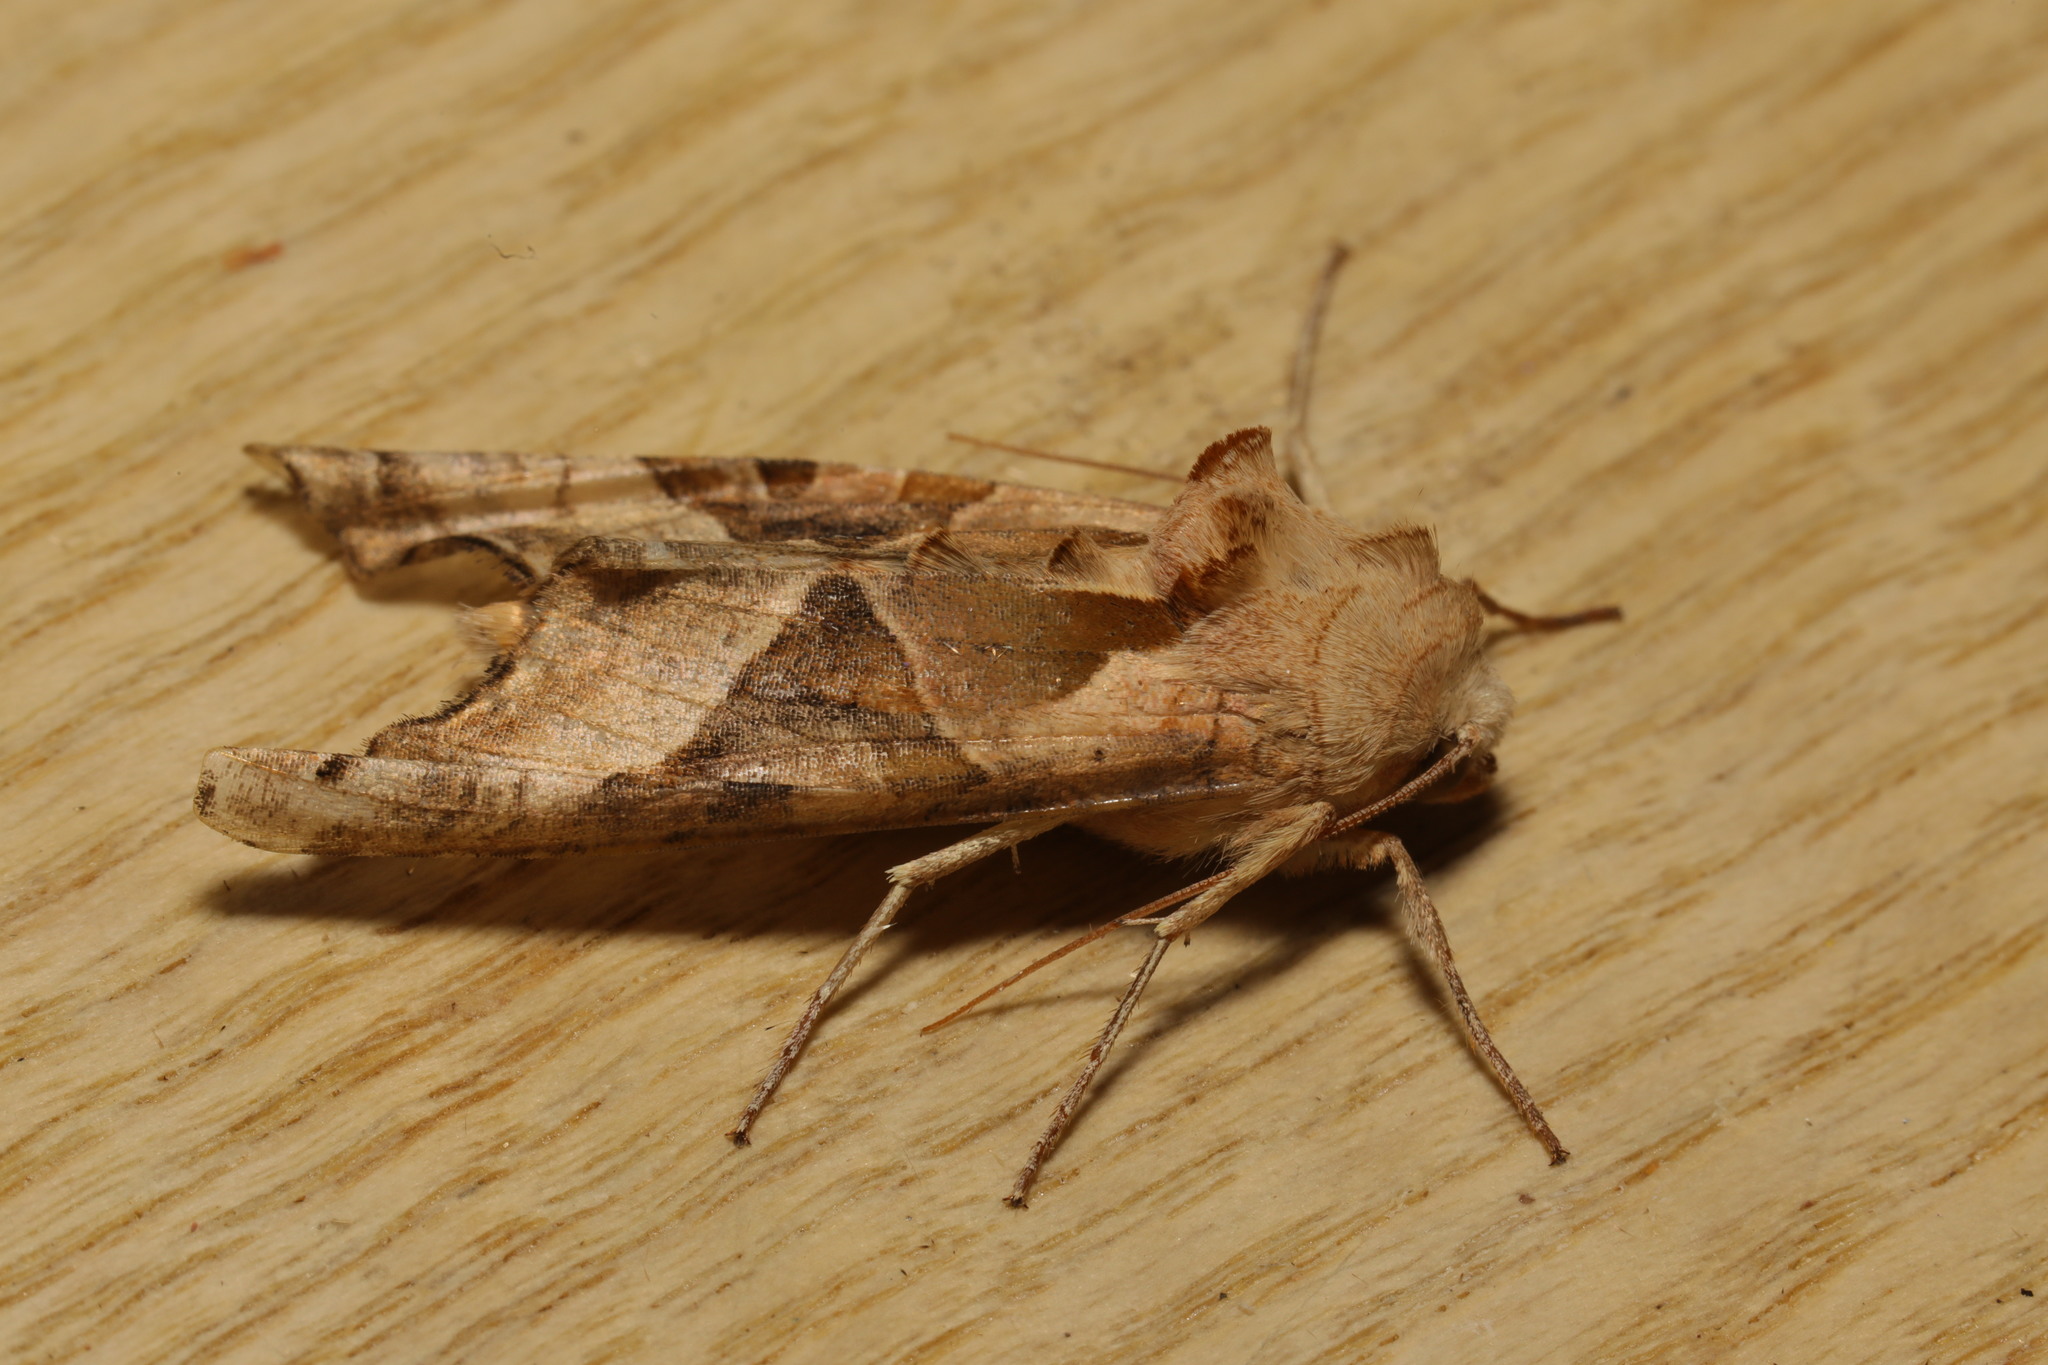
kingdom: Animalia
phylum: Arthropoda
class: Insecta
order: Lepidoptera
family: Noctuidae
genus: Phlogophora
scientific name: Phlogophora meticulosa
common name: Angle shades
